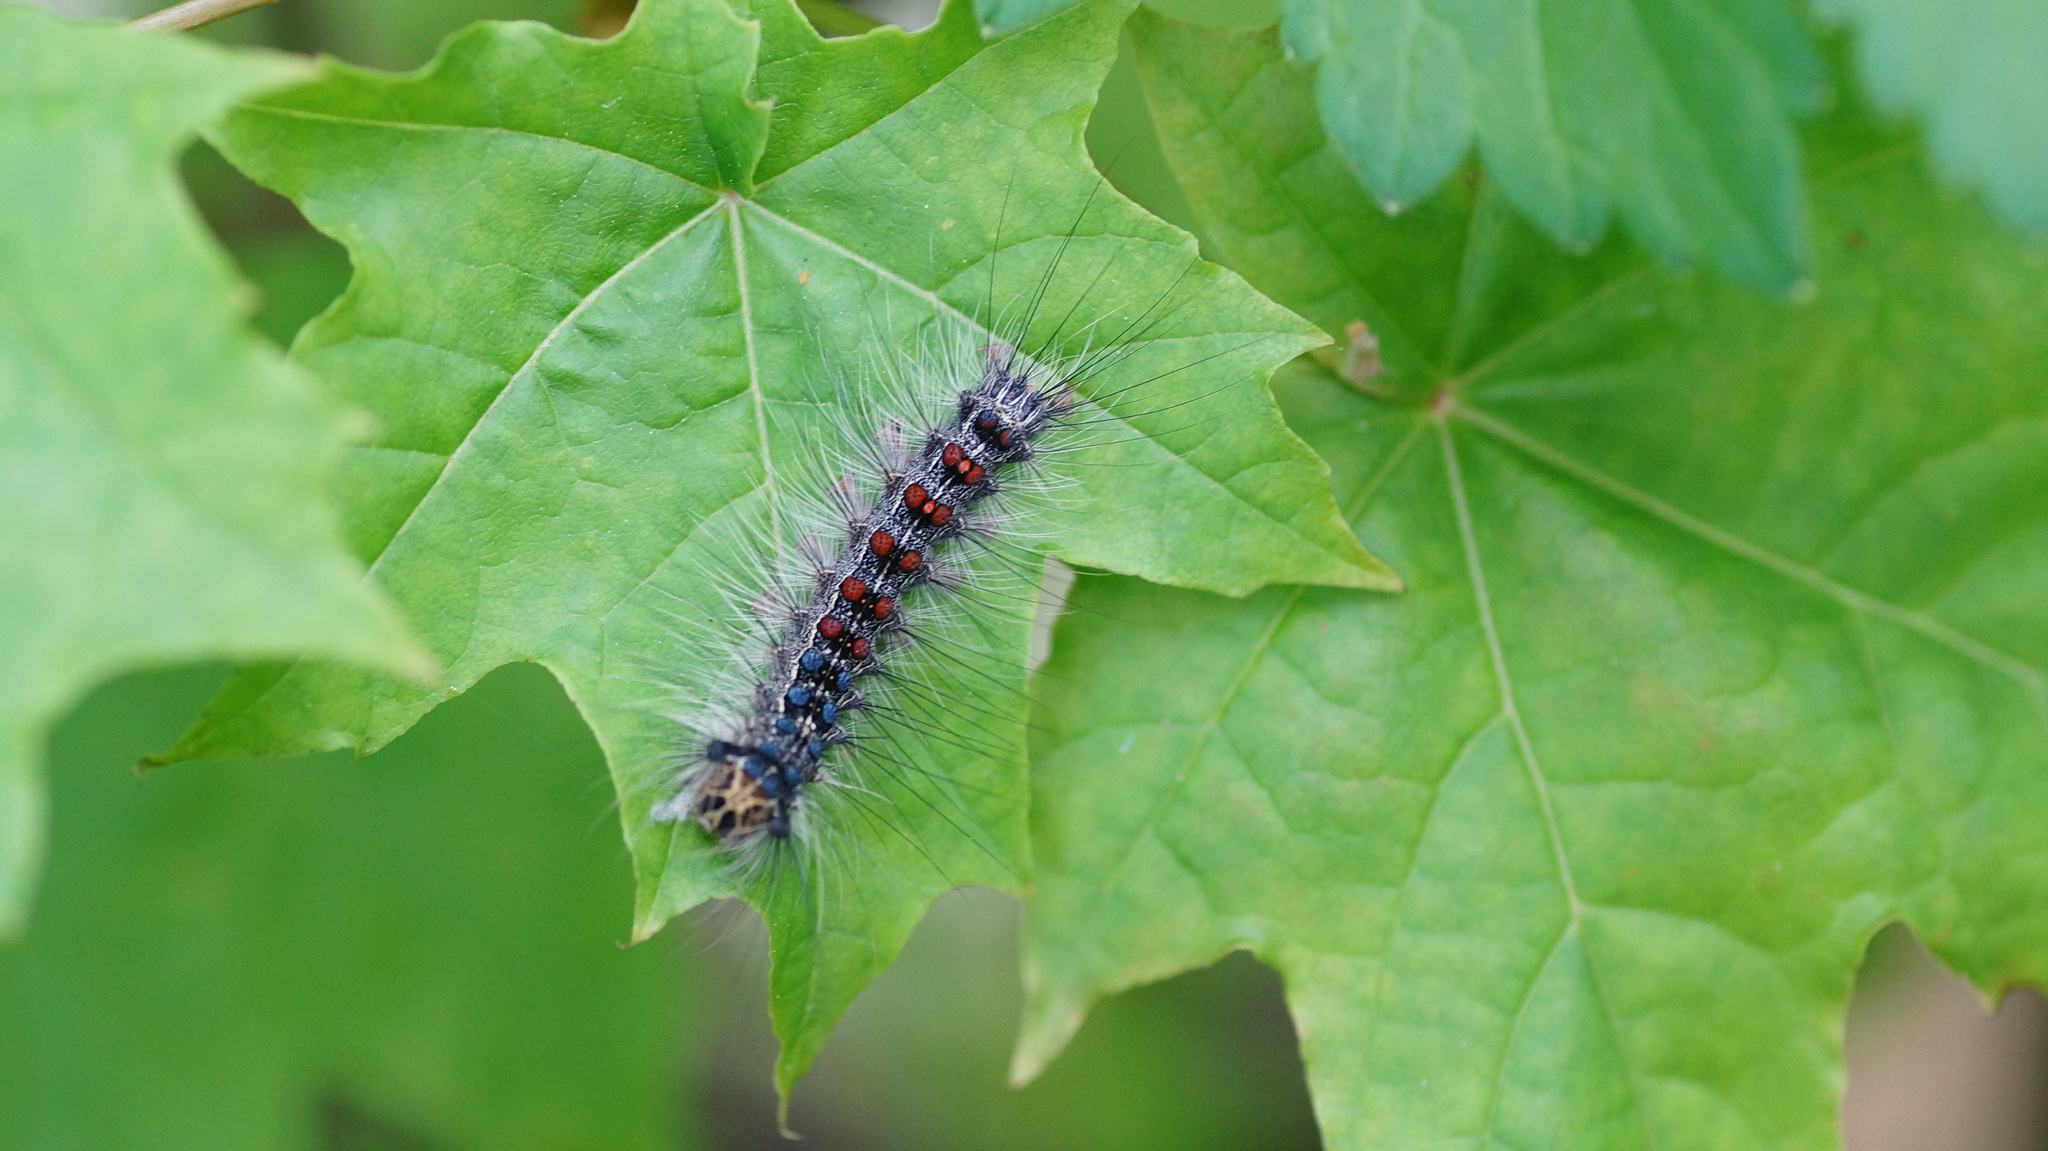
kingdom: Animalia
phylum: Arthropoda
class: Insecta
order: Lepidoptera
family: Erebidae
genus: Lymantria
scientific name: Lymantria dispar
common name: Gypsy moth
